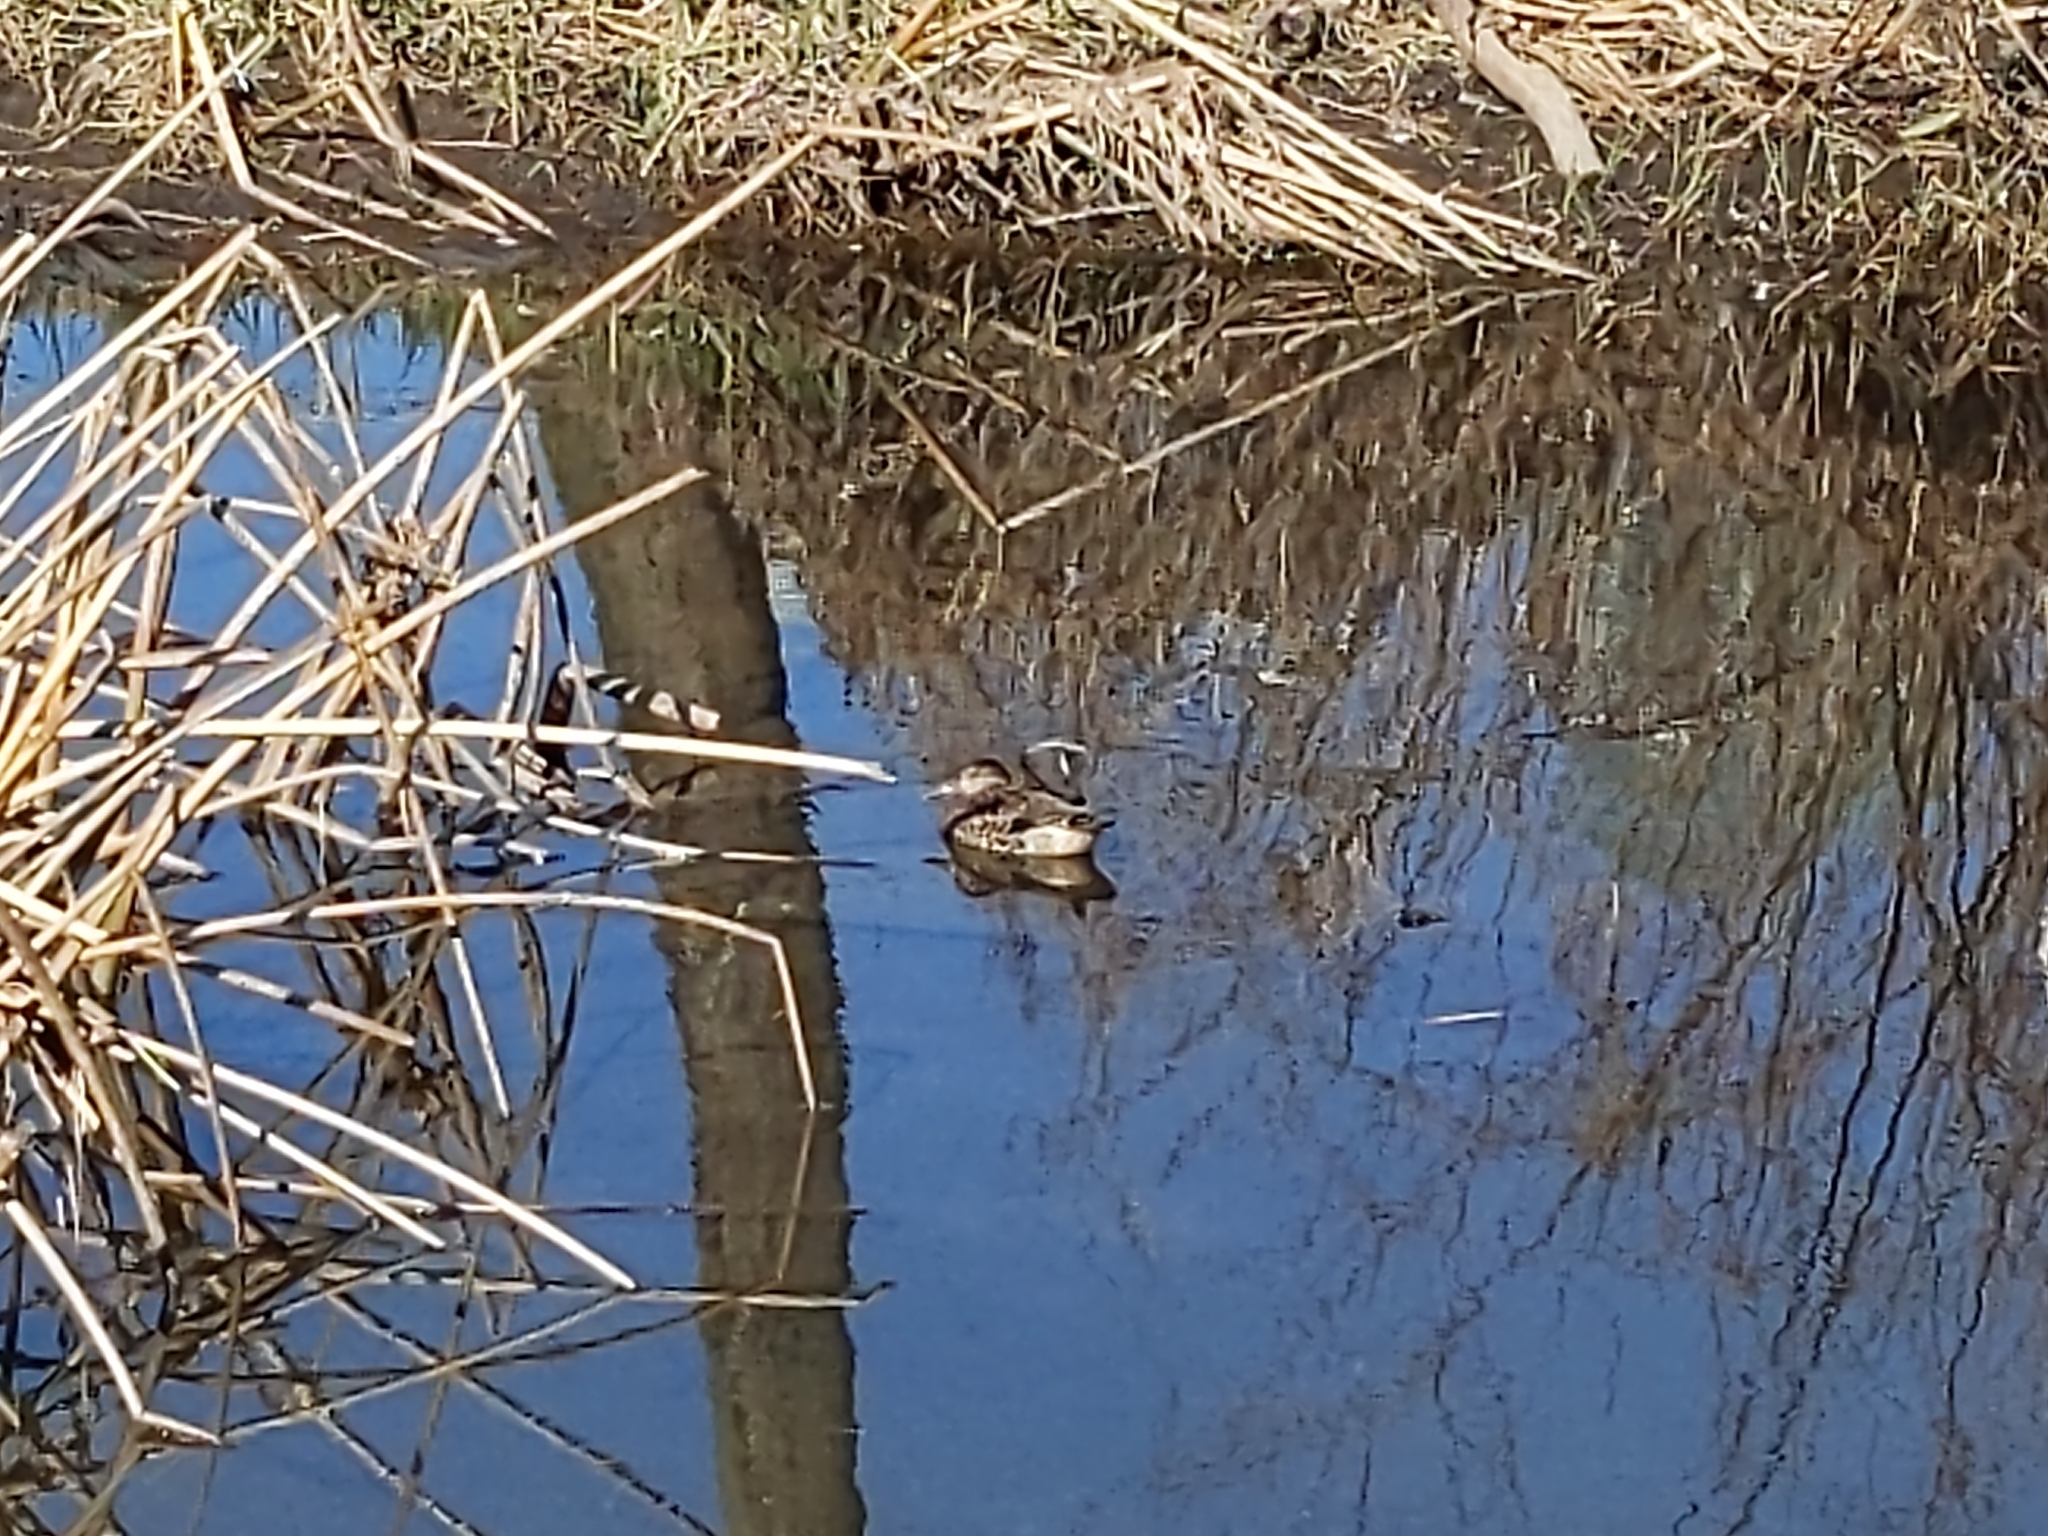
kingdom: Animalia
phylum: Chordata
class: Aves
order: Anseriformes
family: Anatidae
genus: Anas
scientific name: Anas crecca
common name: Eurasian teal
